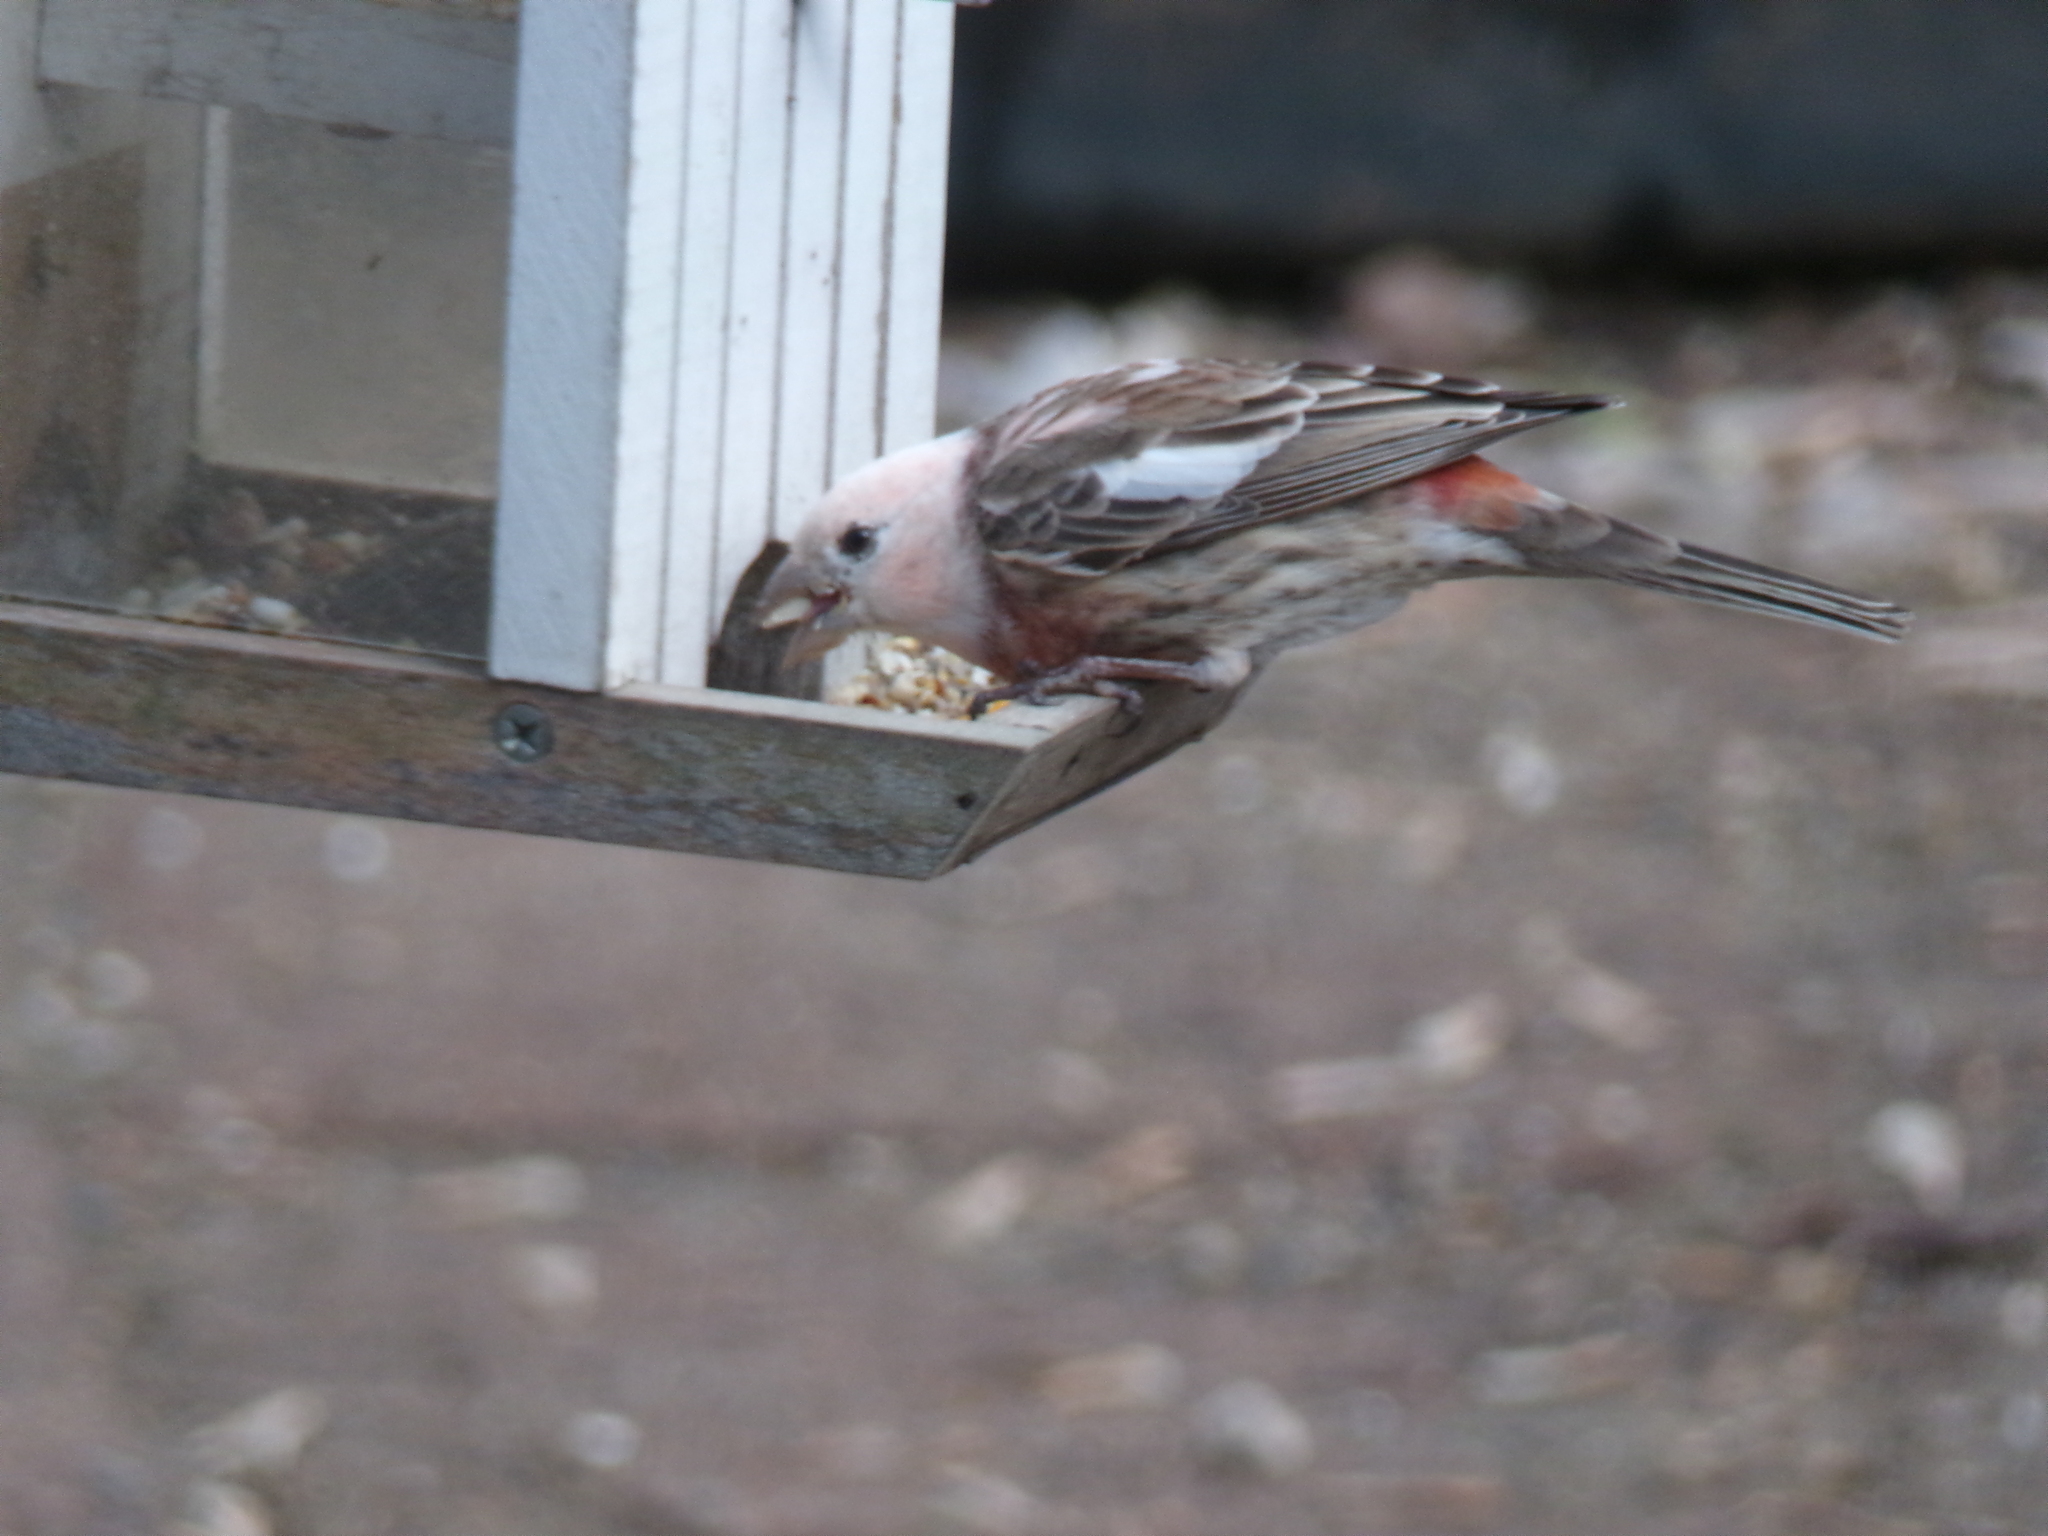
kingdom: Animalia
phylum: Chordata
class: Aves
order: Passeriformes
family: Fringillidae
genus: Haemorhous
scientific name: Haemorhous mexicanus
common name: House finch
